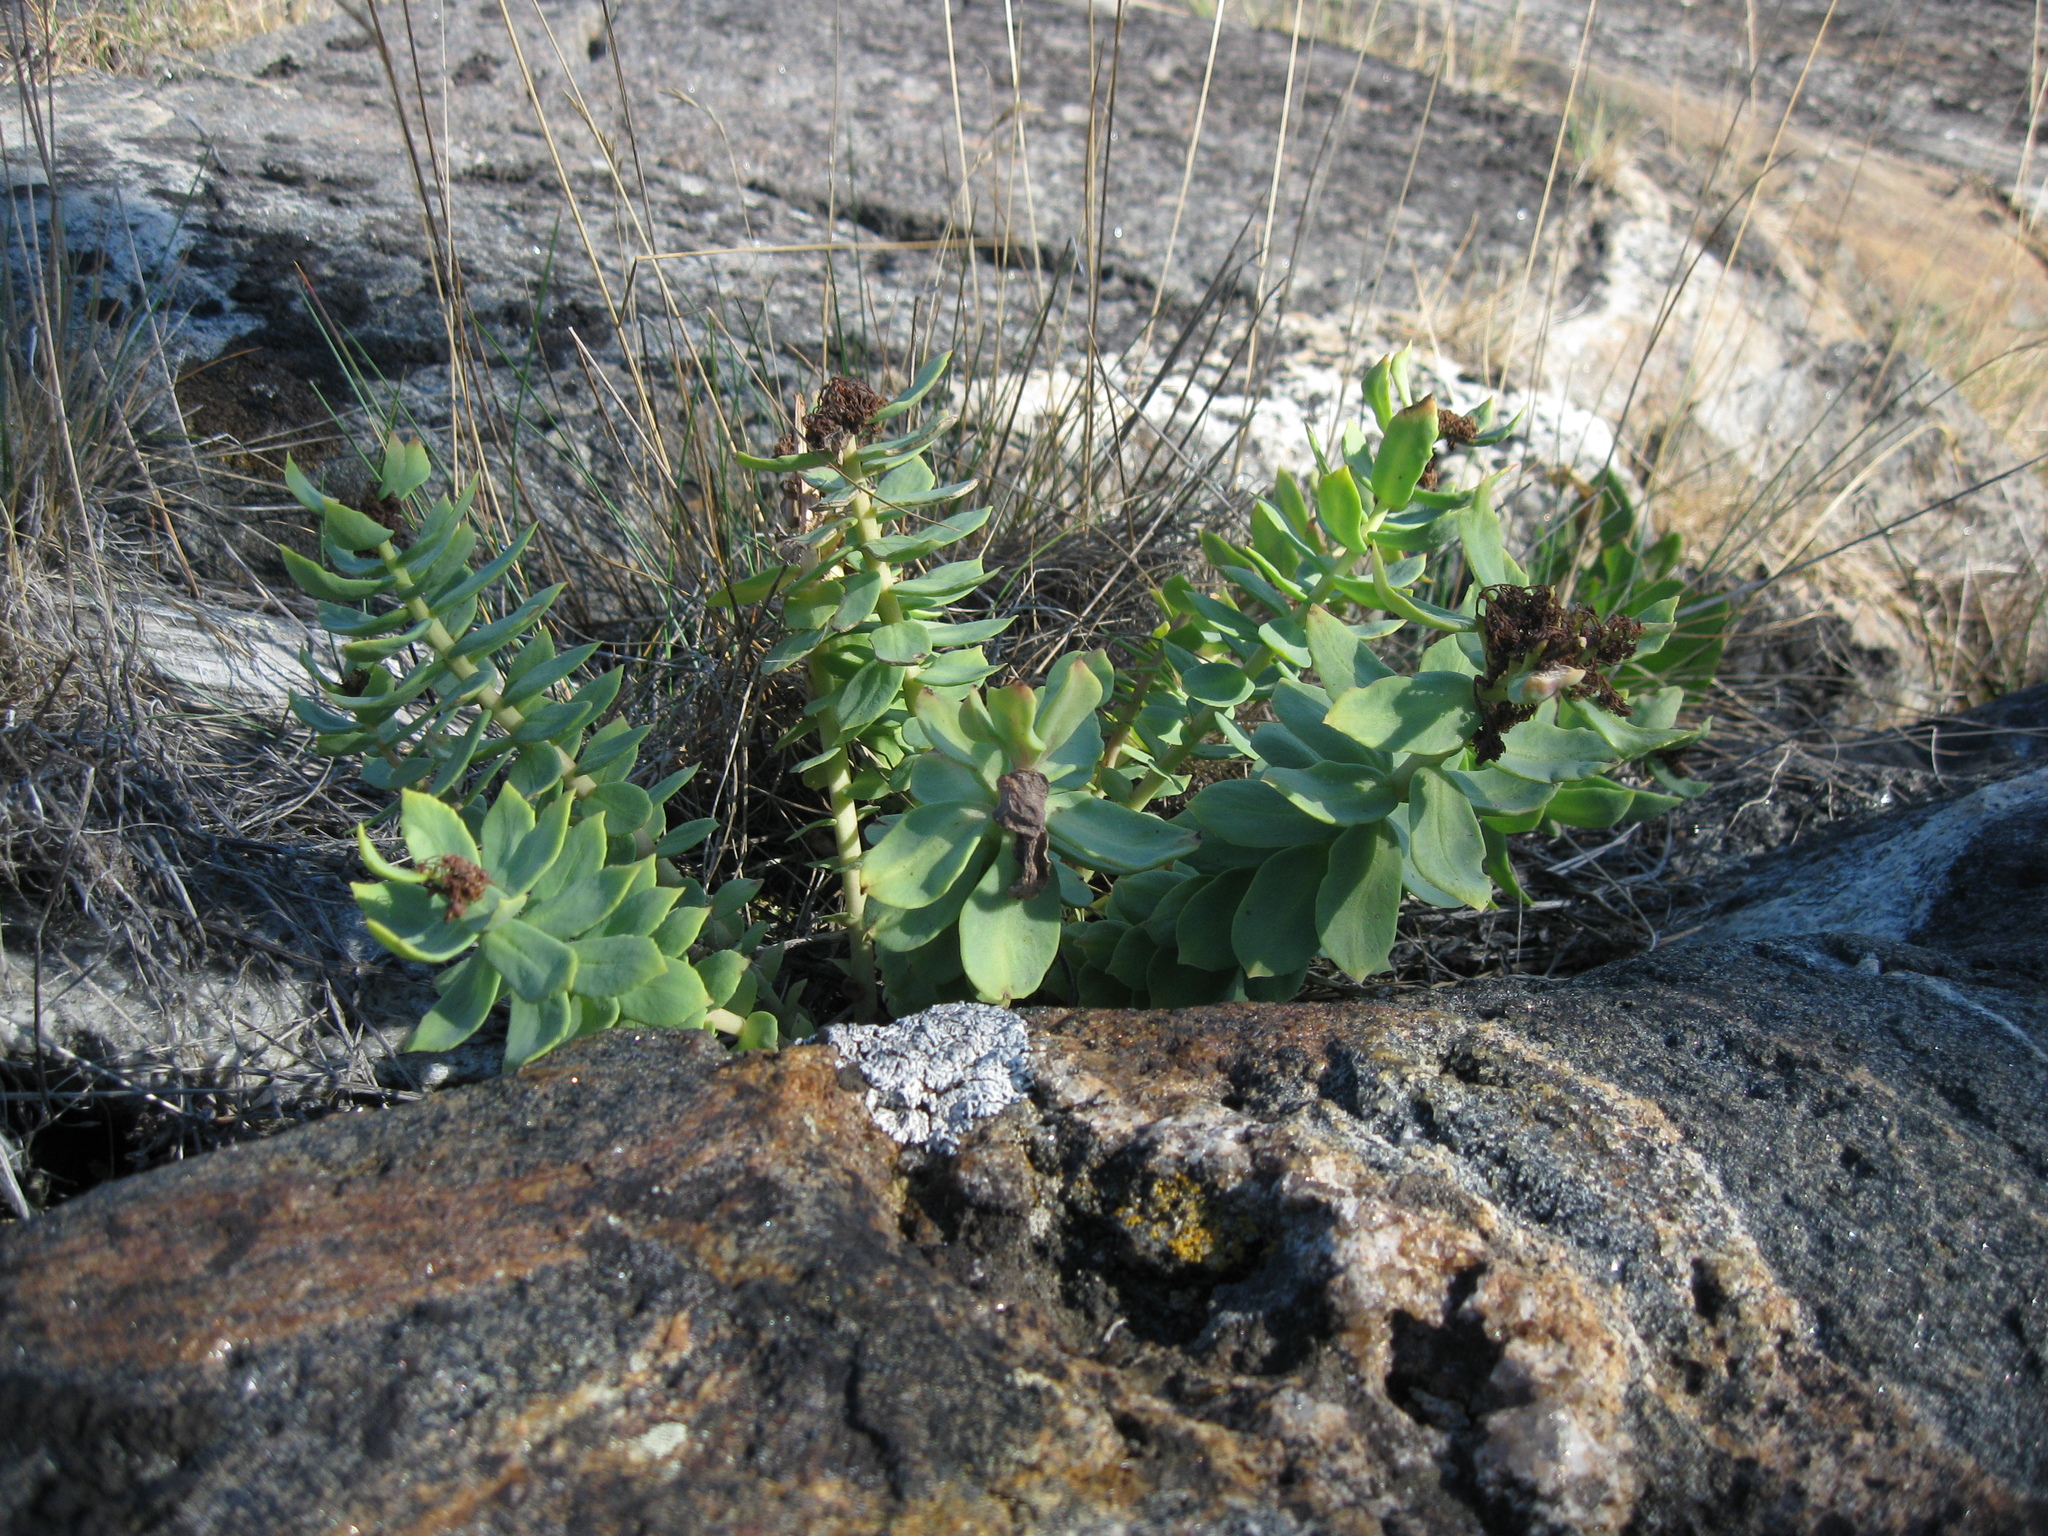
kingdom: Plantae
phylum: Tracheophyta
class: Magnoliopsida
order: Saxifragales
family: Crassulaceae
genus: Rhodiola
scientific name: Rhodiola rosea
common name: Roseroot
